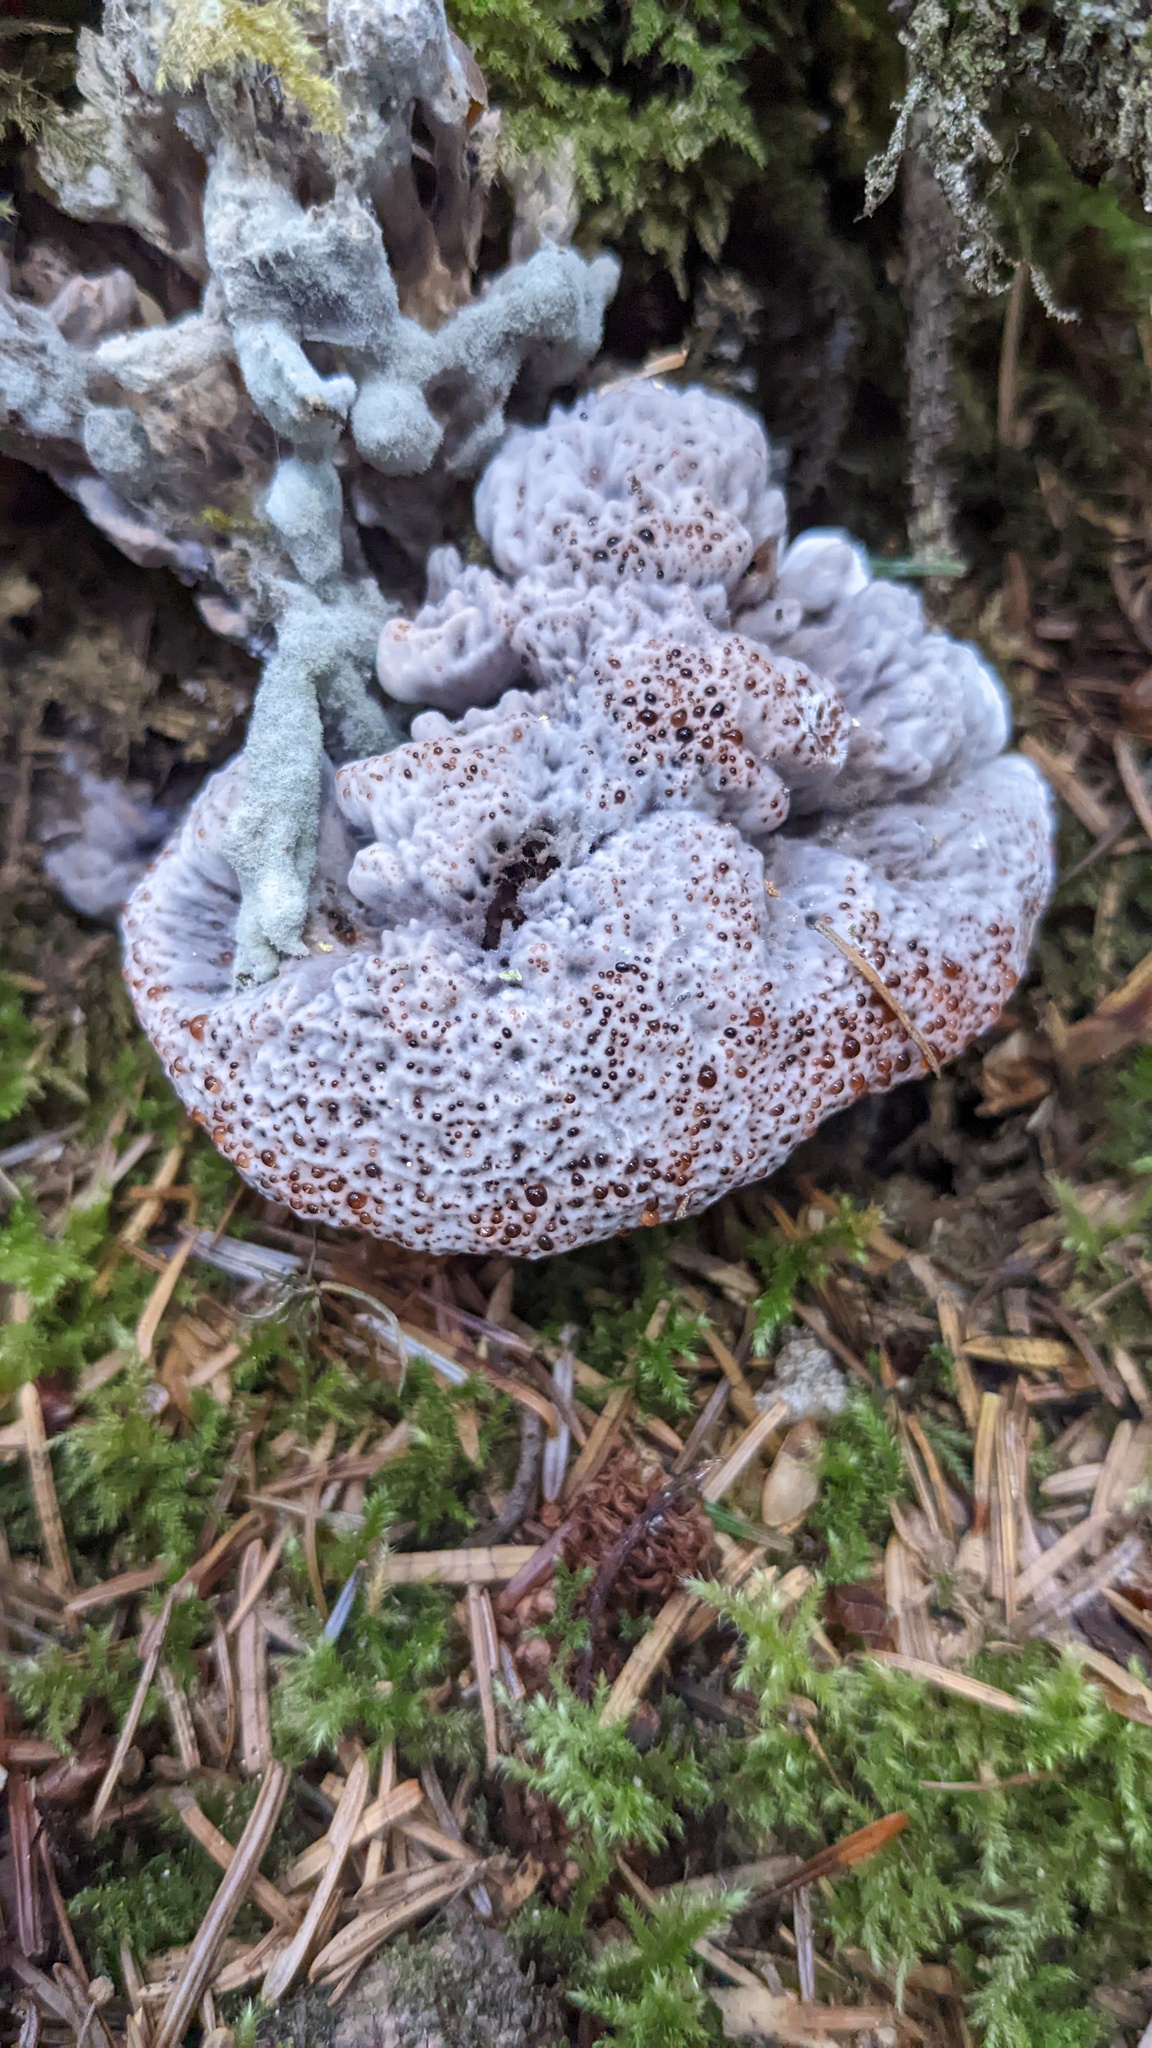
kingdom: Fungi
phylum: Basidiomycota
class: Agaricomycetes
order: Thelephorales
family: Bankeraceae
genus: Hydnellum
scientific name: Hydnellum cyanopodium
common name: Bleeding blue tooth
